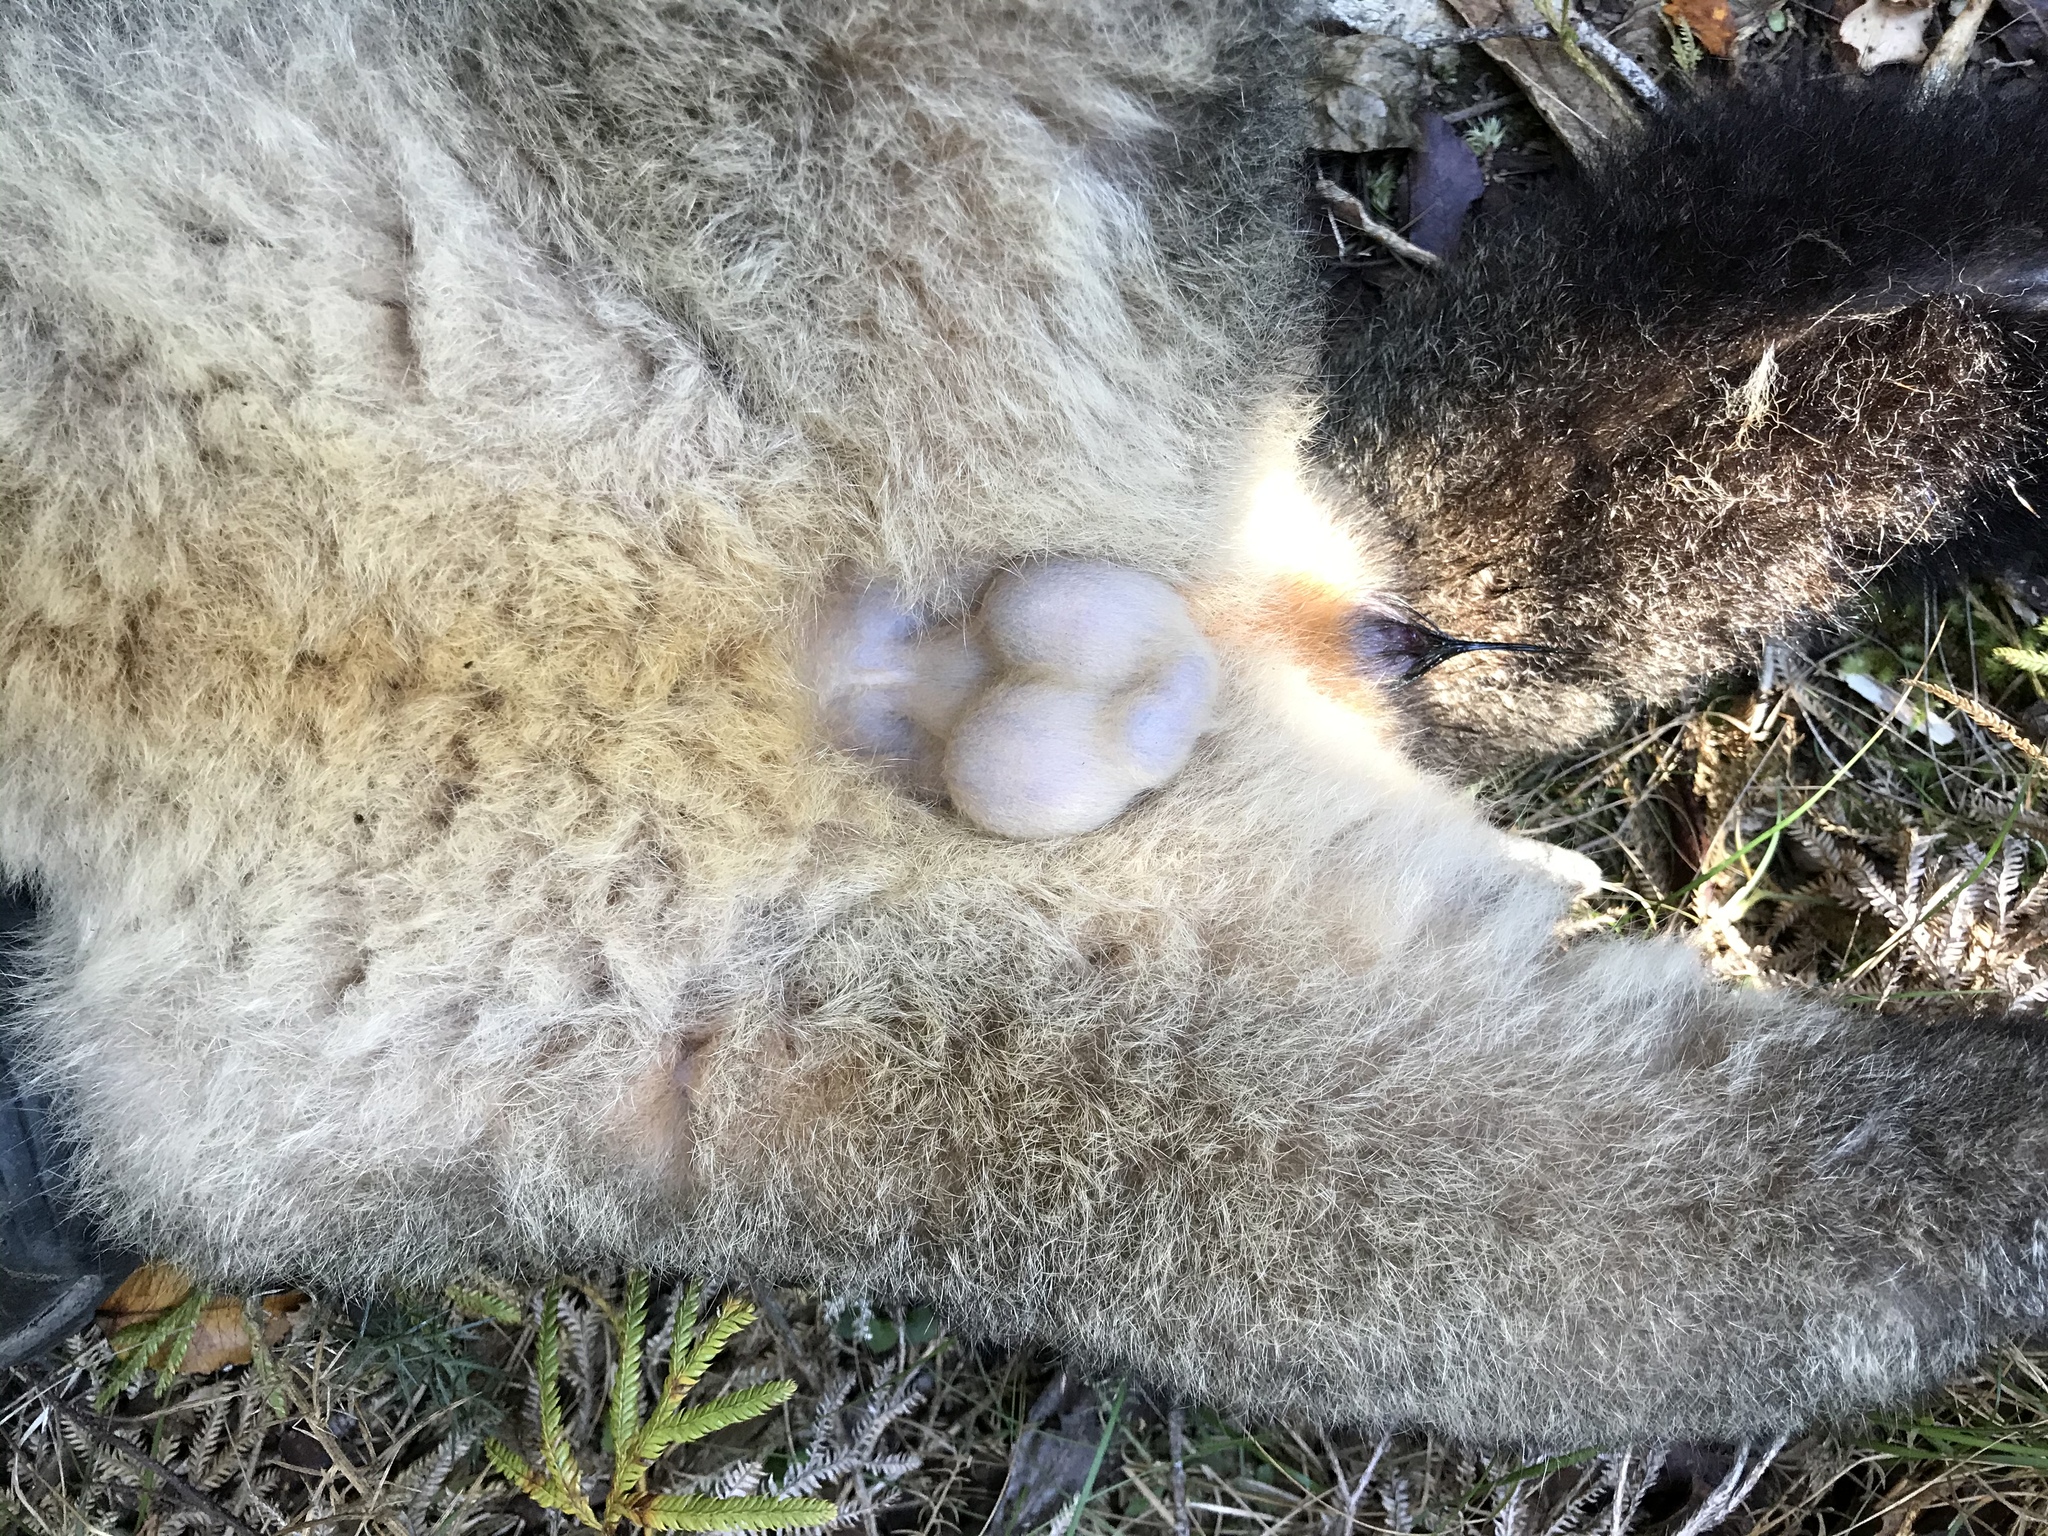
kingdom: Animalia
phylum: Chordata
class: Mammalia
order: Diprotodontia
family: Phalangeridae
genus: Trichosurus
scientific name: Trichosurus vulpecula
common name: Common brushtail
